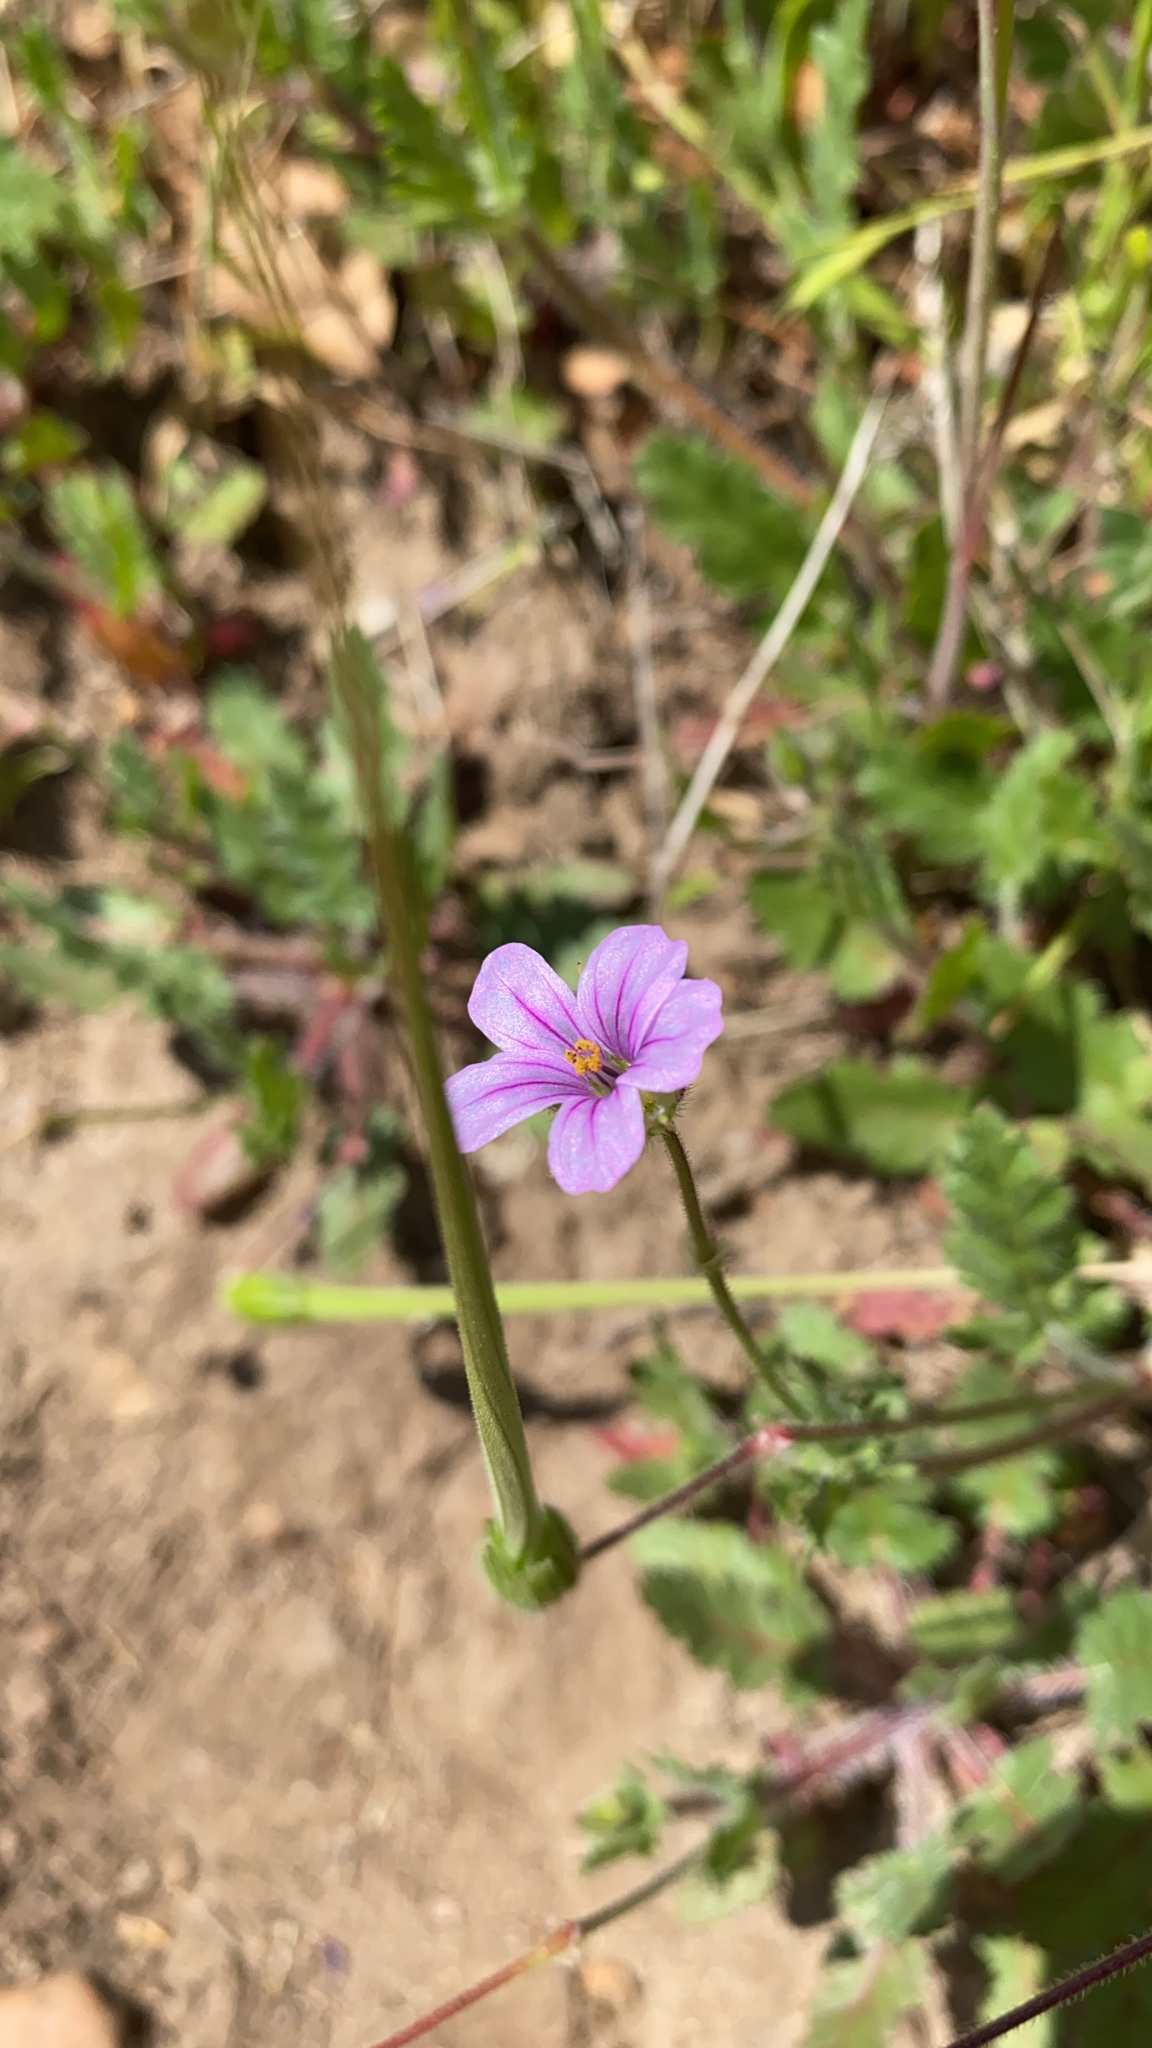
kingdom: Plantae
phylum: Tracheophyta
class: Magnoliopsida
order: Geraniales
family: Geraniaceae
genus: Erodium
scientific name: Erodium botrys
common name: Mediterranean stork's-bill
